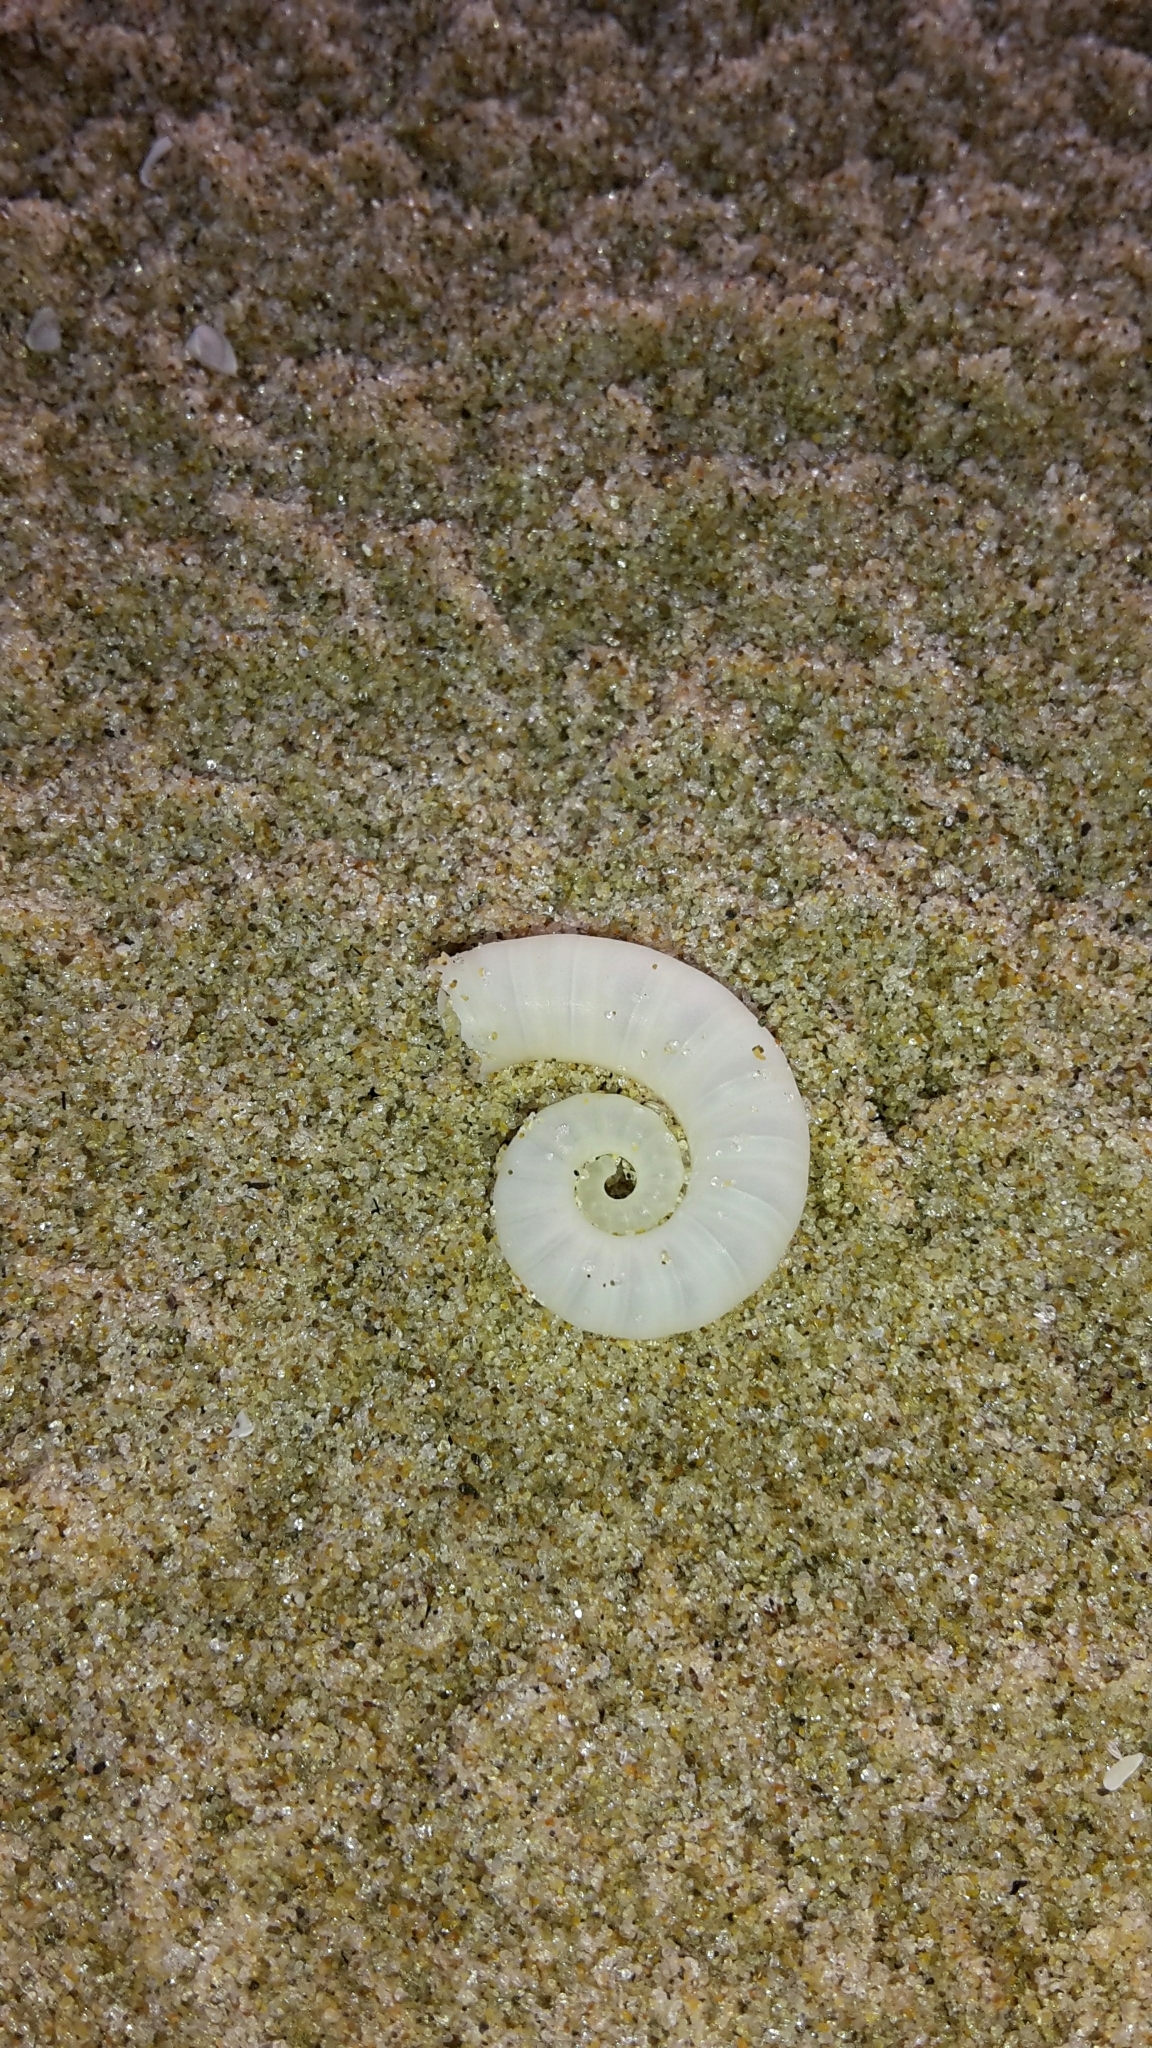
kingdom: Animalia
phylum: Mollusca
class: Cephalopoda
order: Spirulida
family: Spirulidae
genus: Spirula
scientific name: Spirula spirula
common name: Ram's horn squid
